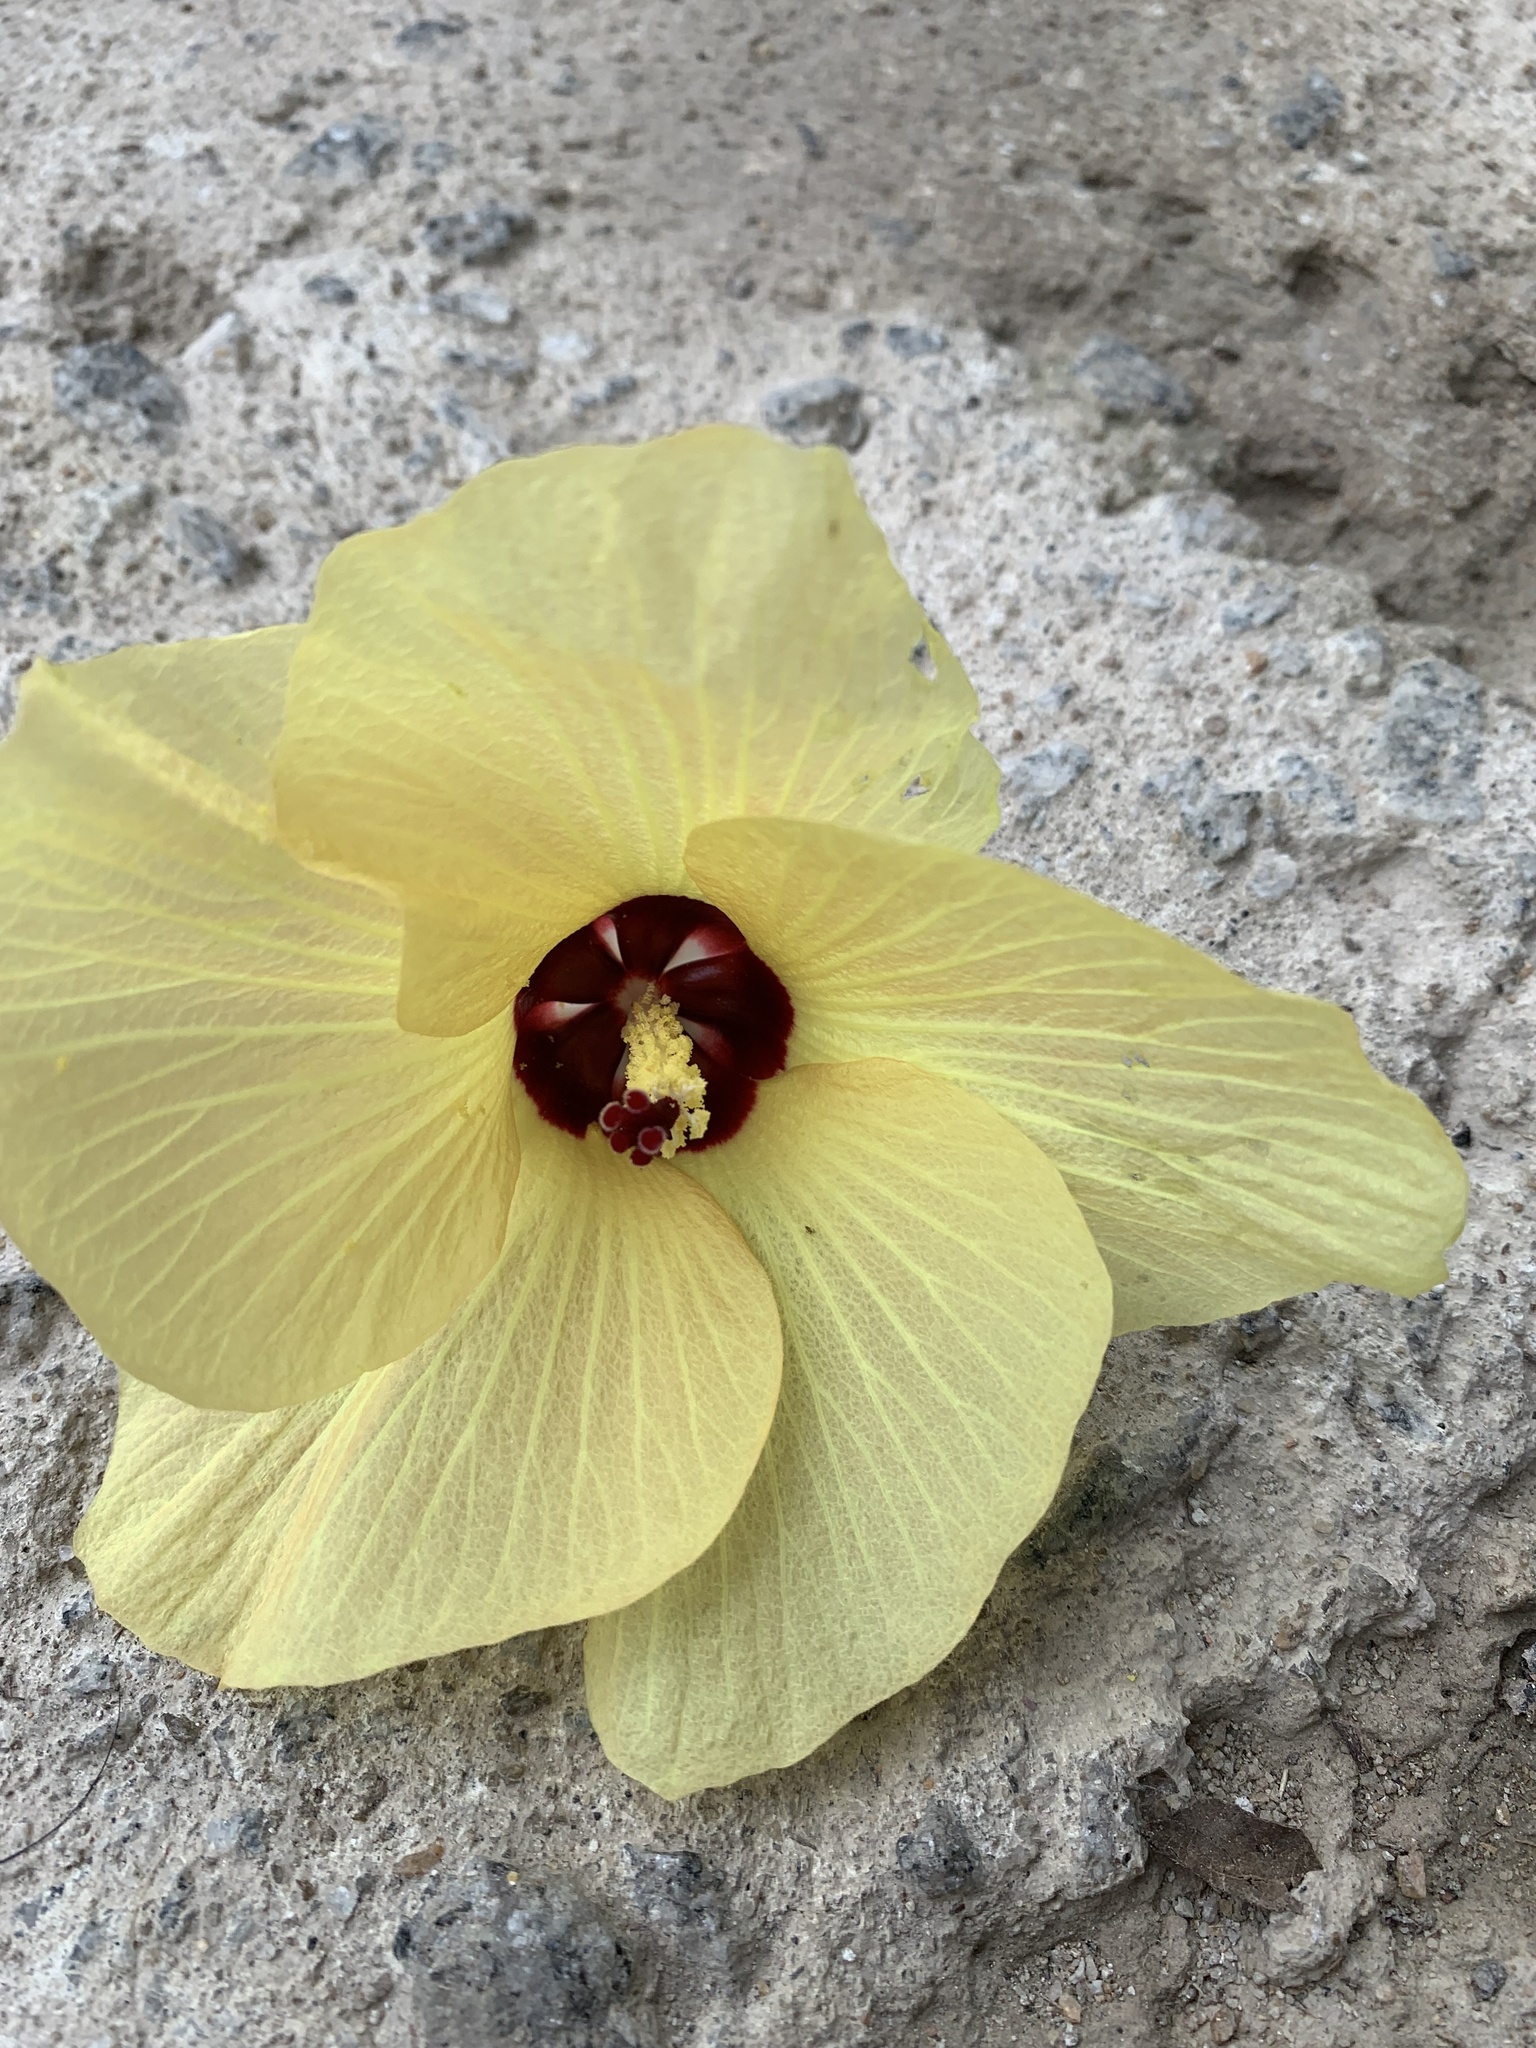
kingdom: Plantae
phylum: Tracheophyta
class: Magnoliopsida
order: Malvales
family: Malvaceae
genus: Talipariti
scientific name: Talipariti tiliaceum
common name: Sea hibiscus
